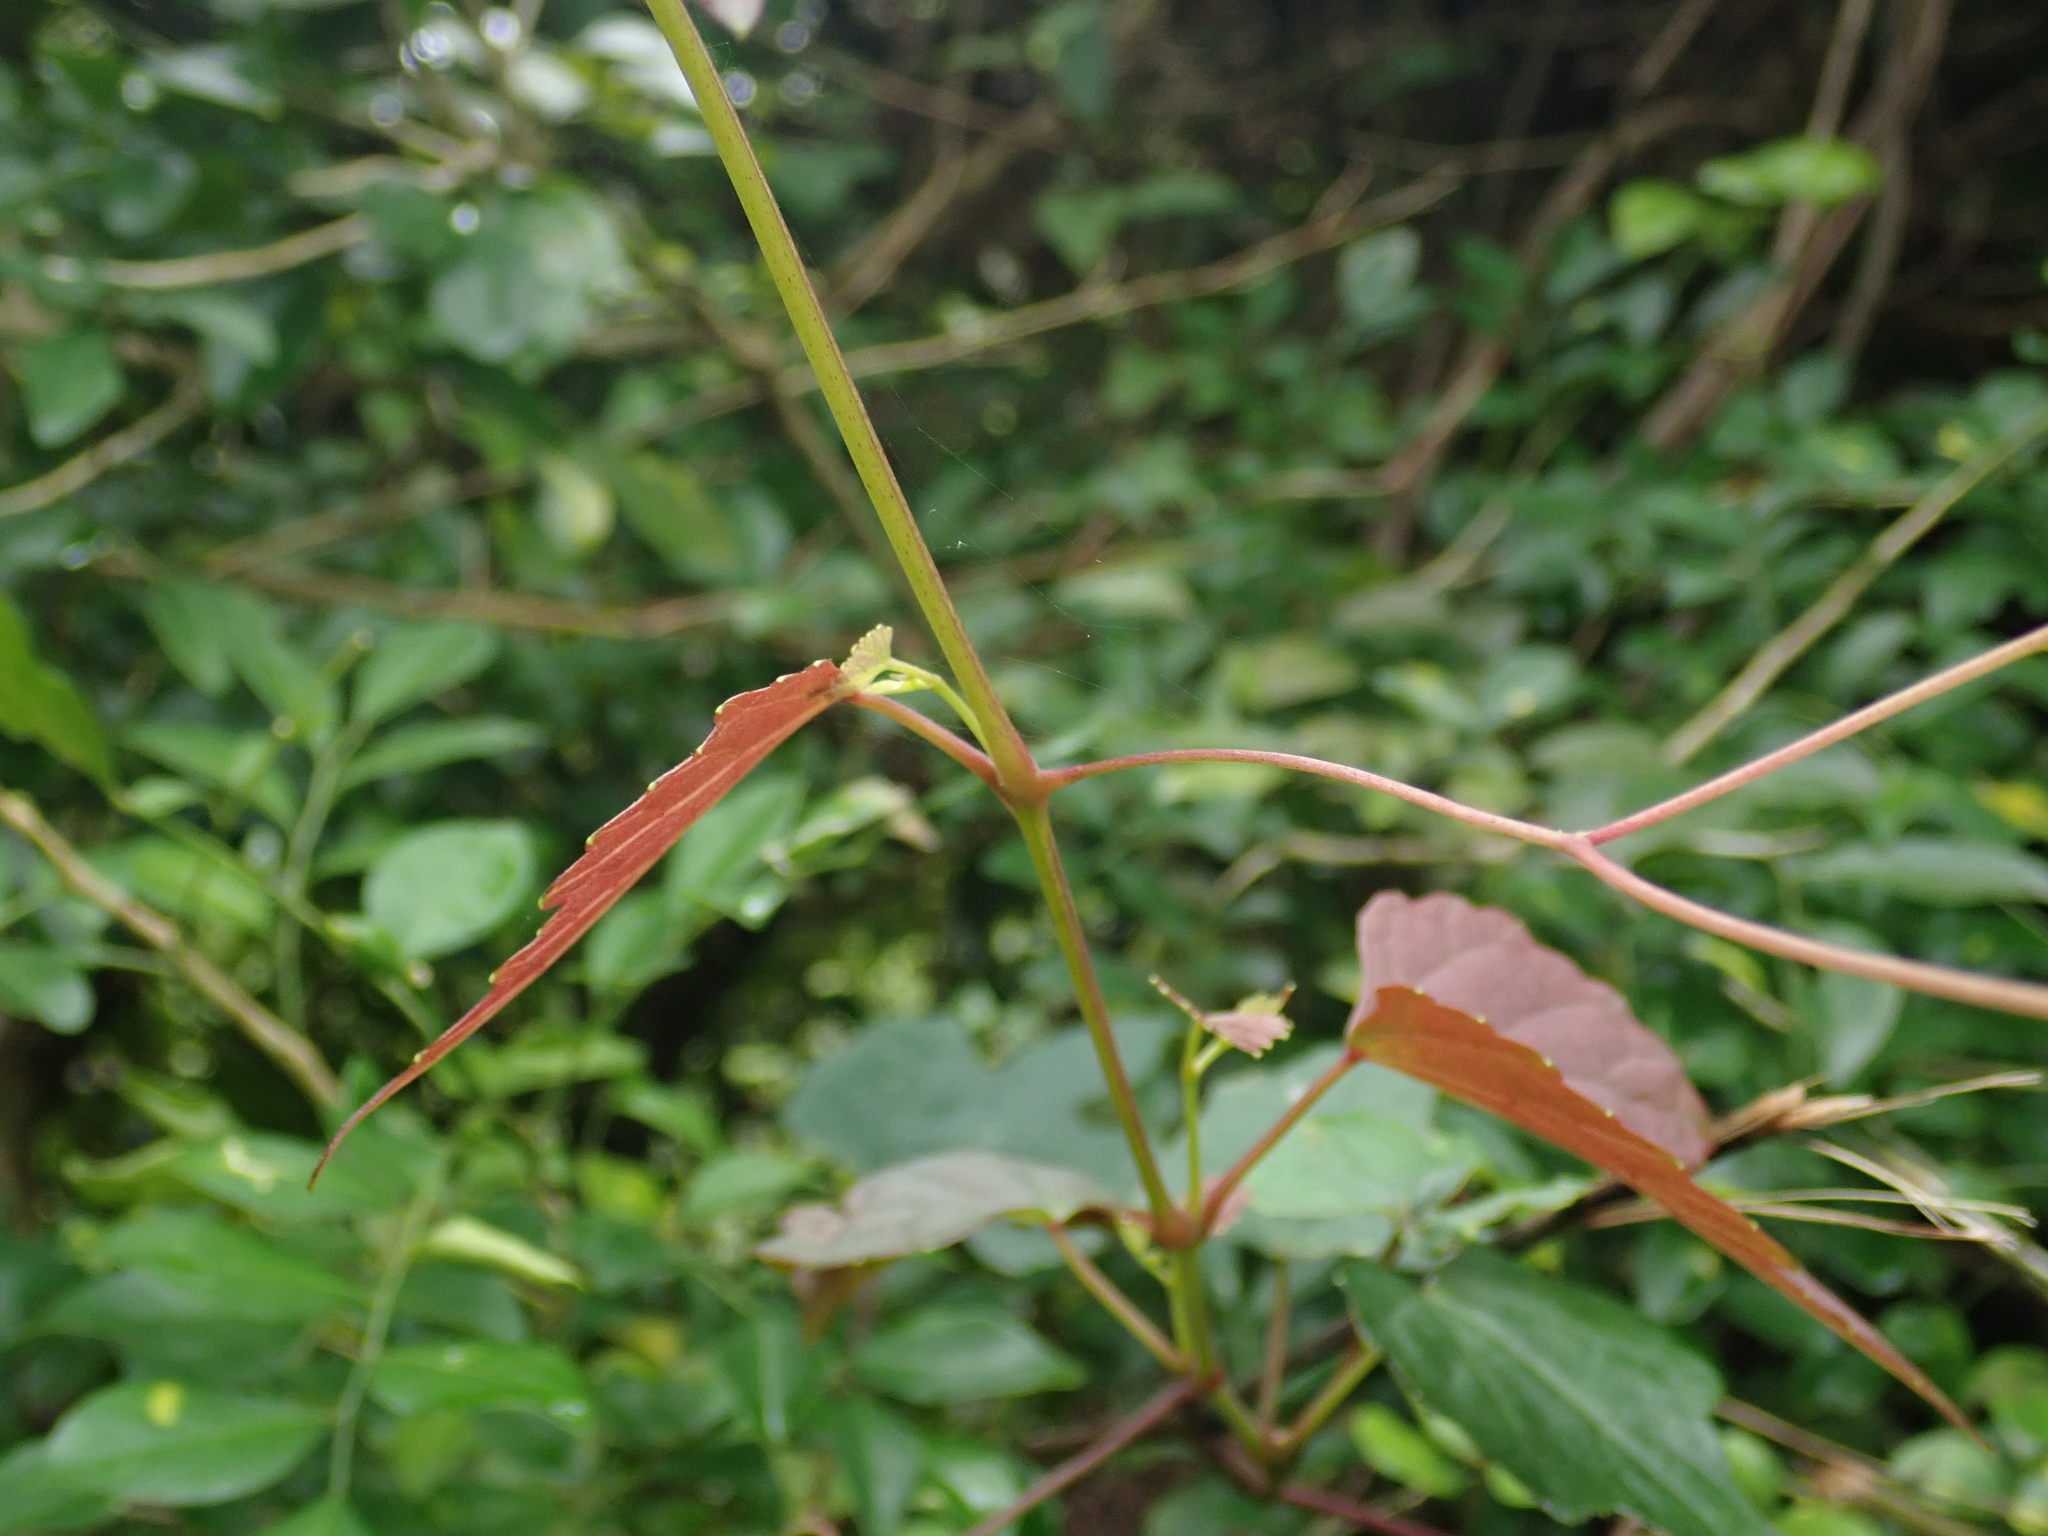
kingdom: Plantae
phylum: Tracheophyta
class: Magnoliopsida
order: Vitales
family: Vitaceae
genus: Ampelopsis
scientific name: Ampelopsis glandulosa
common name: Amur peppervine
